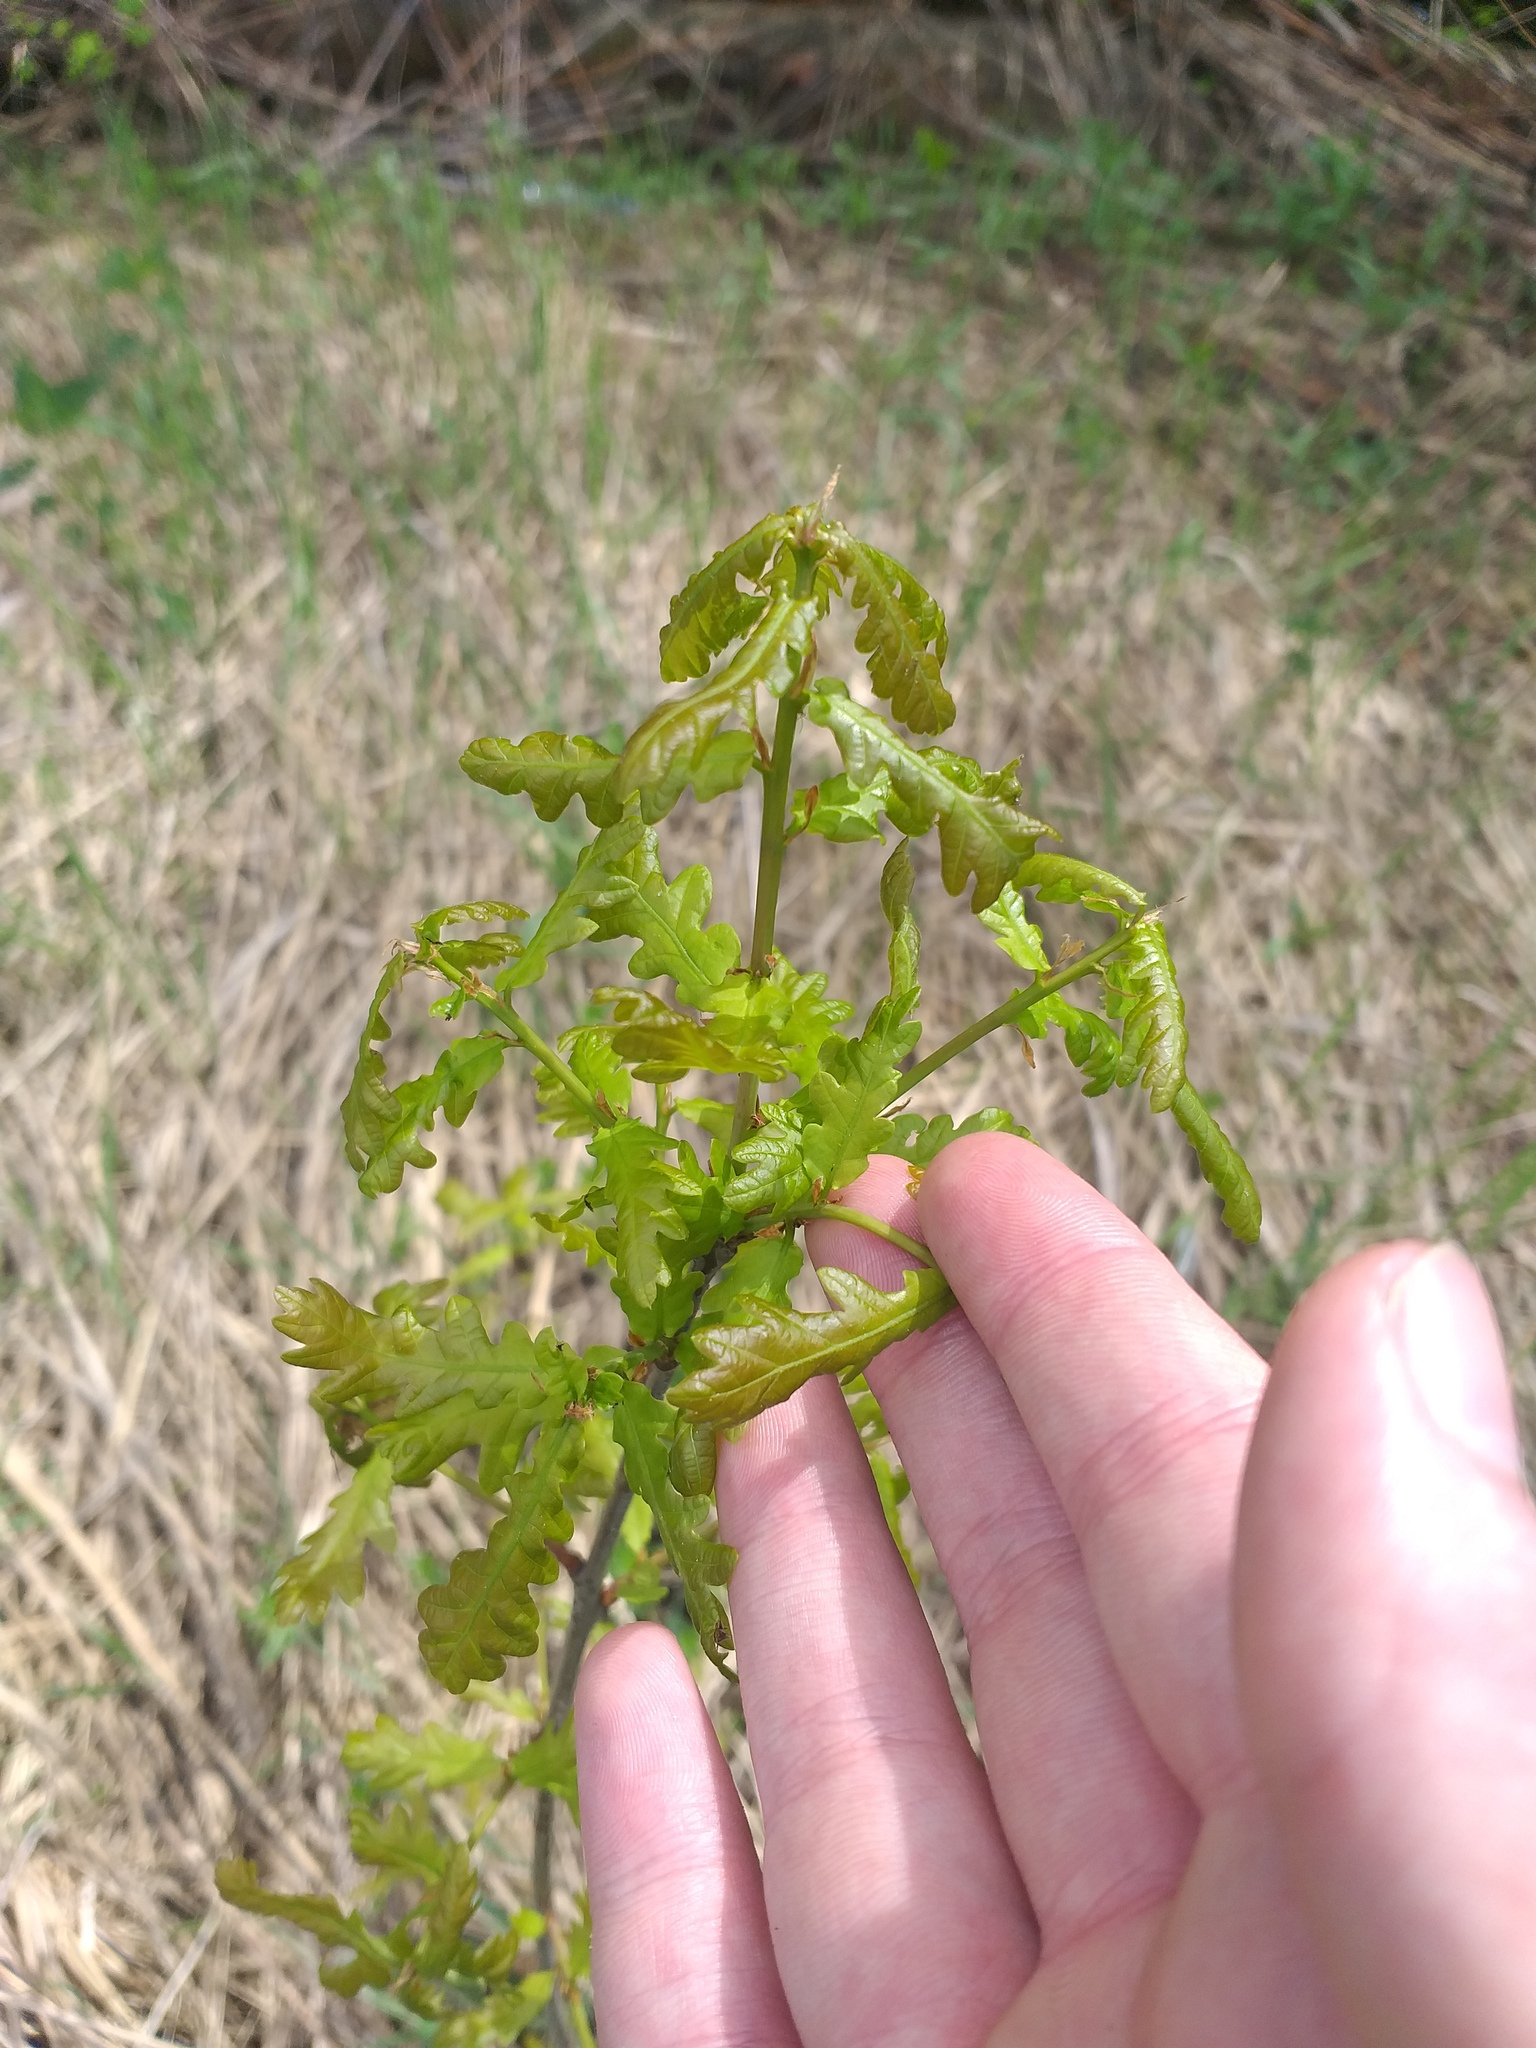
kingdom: Plantae
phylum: Tracheophyta
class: Magnoliopsida
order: Fagales
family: Fagaceae
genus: Quercus
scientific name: Quercus robur
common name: Pedunculate oak
